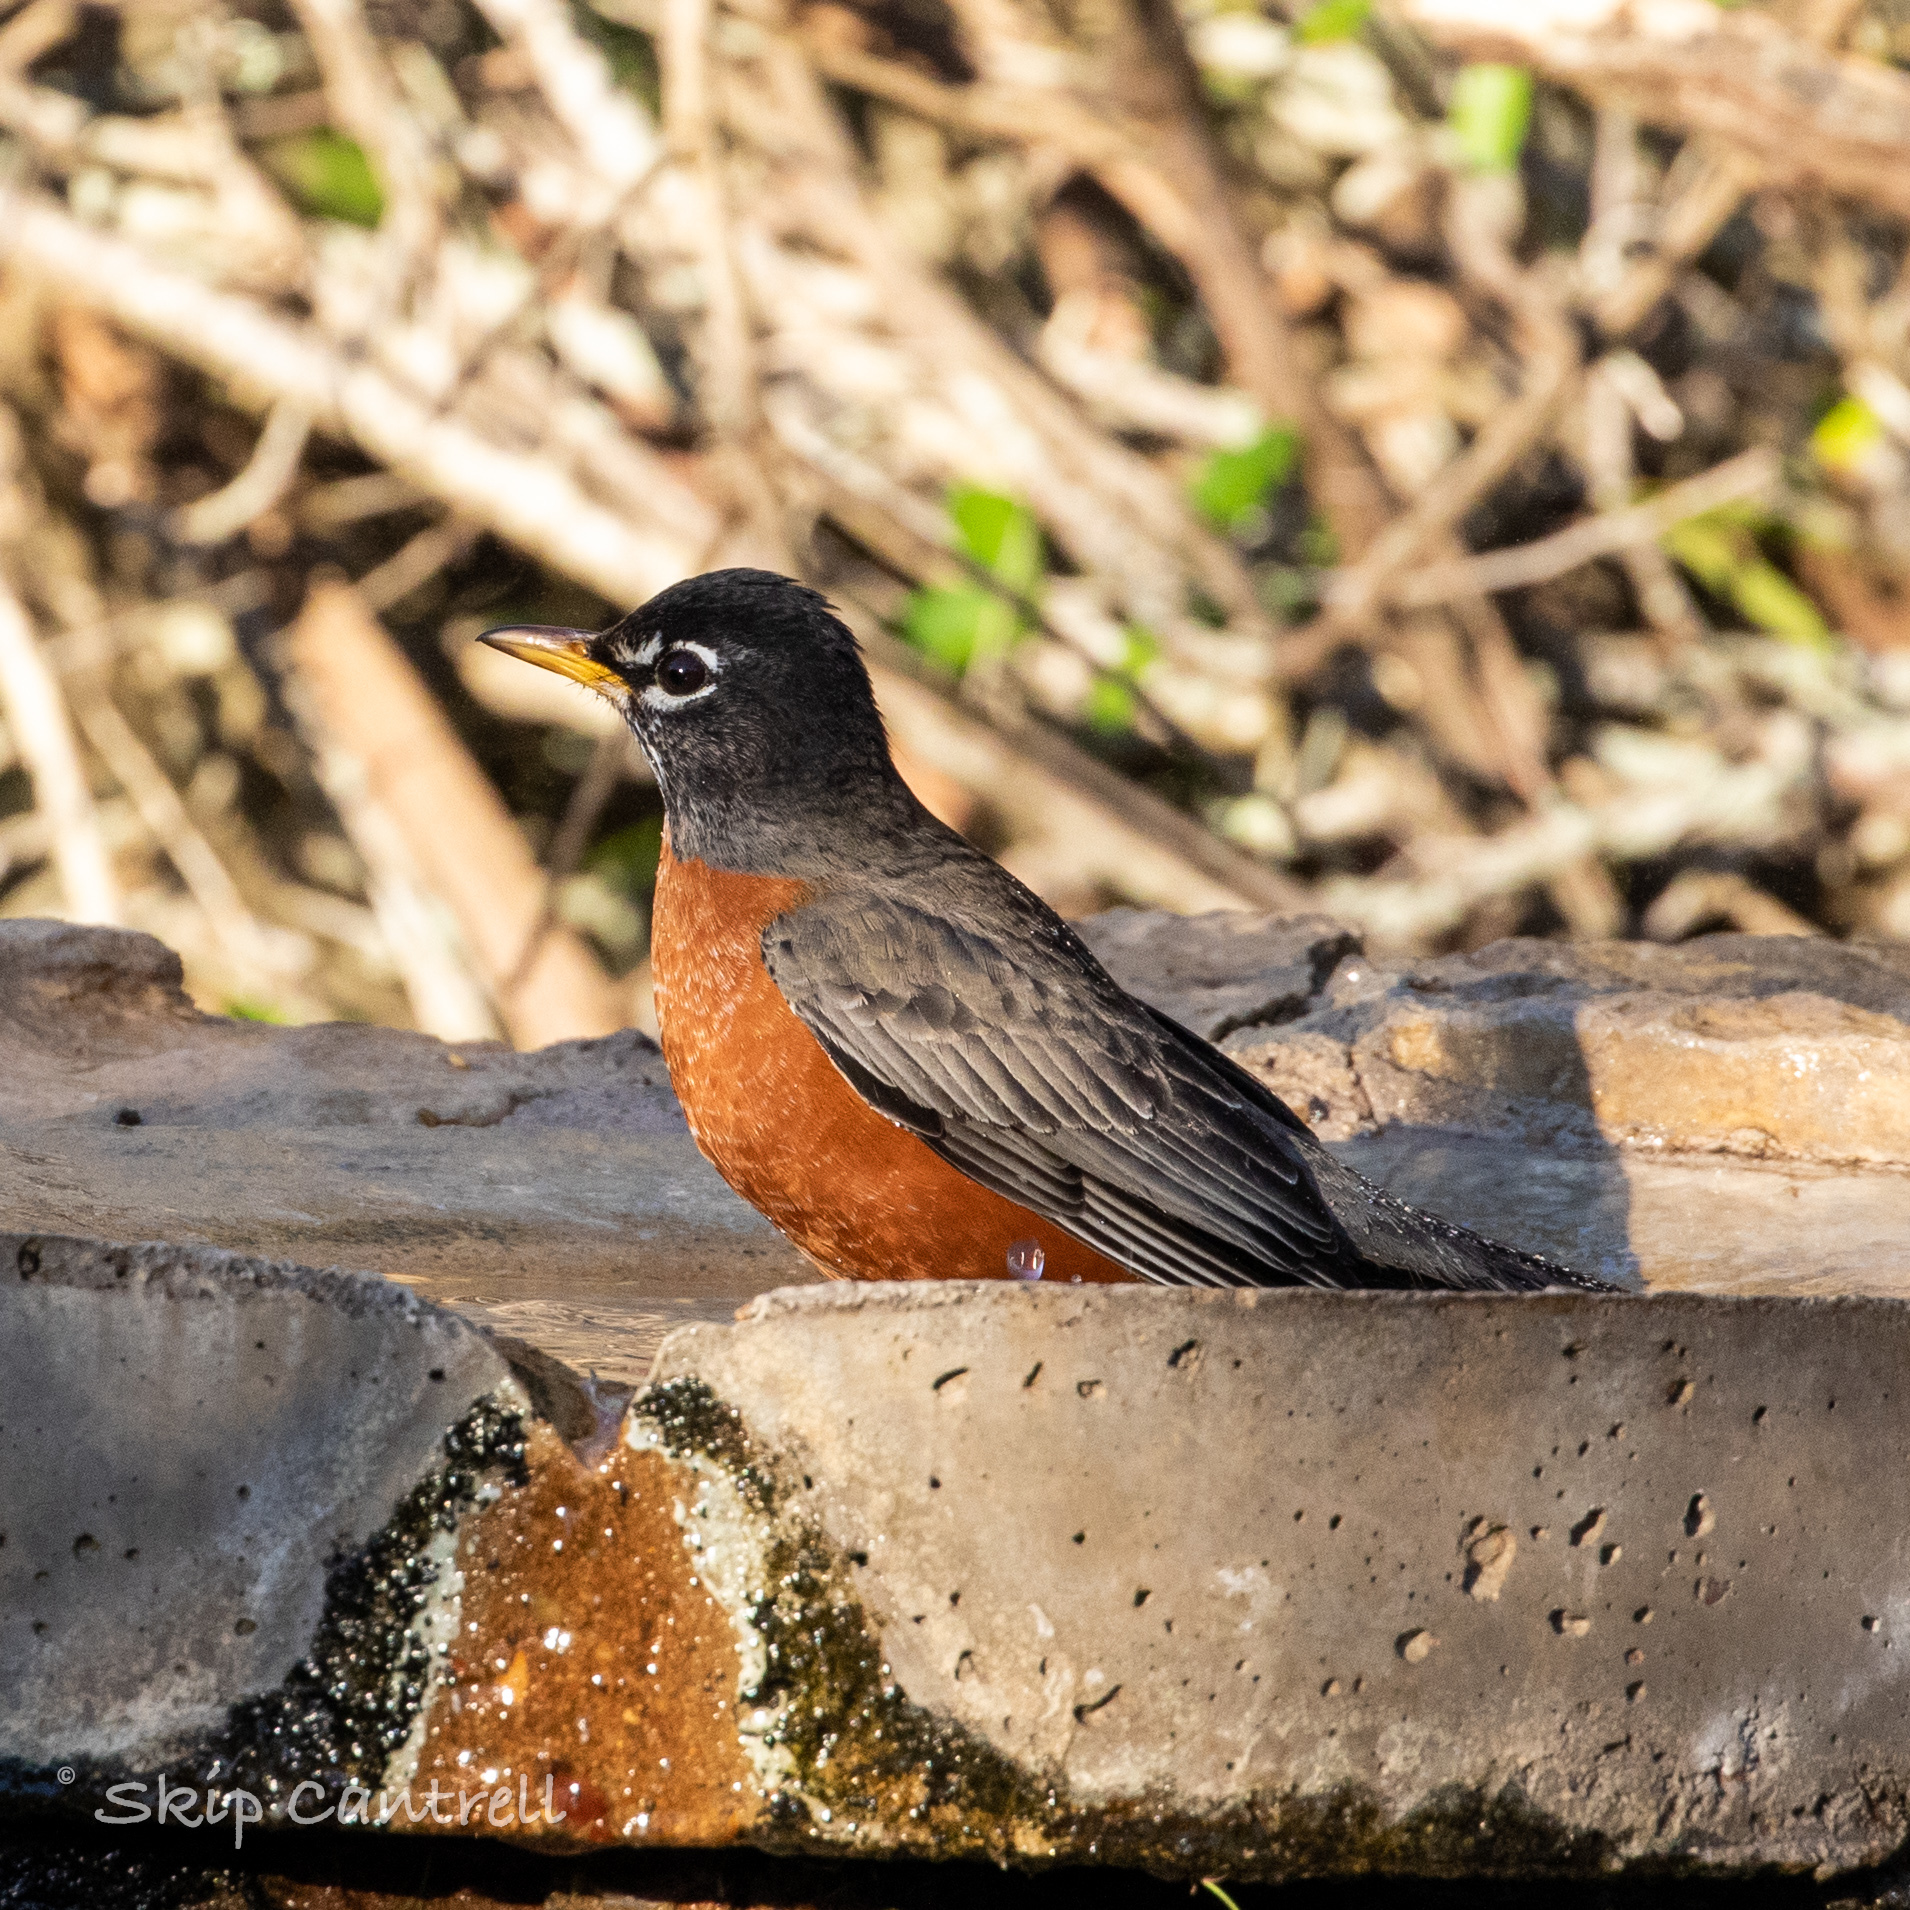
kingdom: Animalia
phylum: Chordata
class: Aves
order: Passeriformes
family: Turdidae
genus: Turdus
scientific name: Turdus migratorius
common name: American robin
